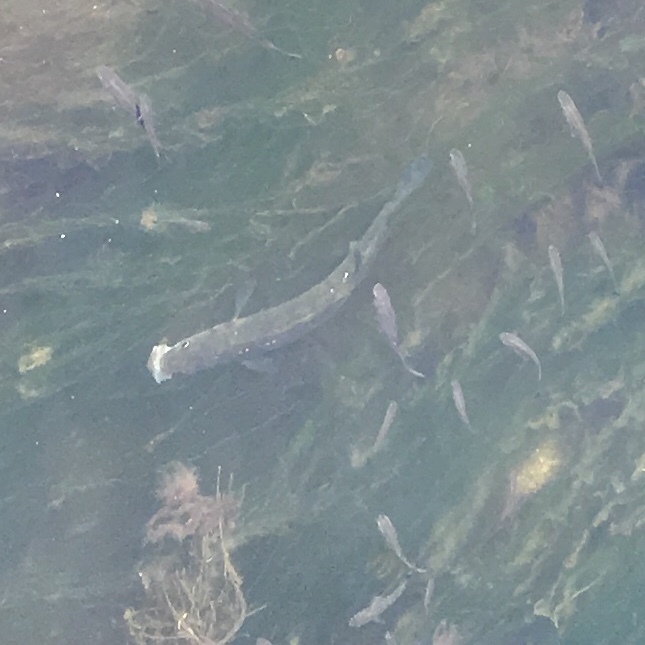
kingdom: Animalia
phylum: Chordata
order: Perciformes
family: Moronidae
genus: Dicentrarchus
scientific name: Dicentrarchus labrax
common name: European seabass
